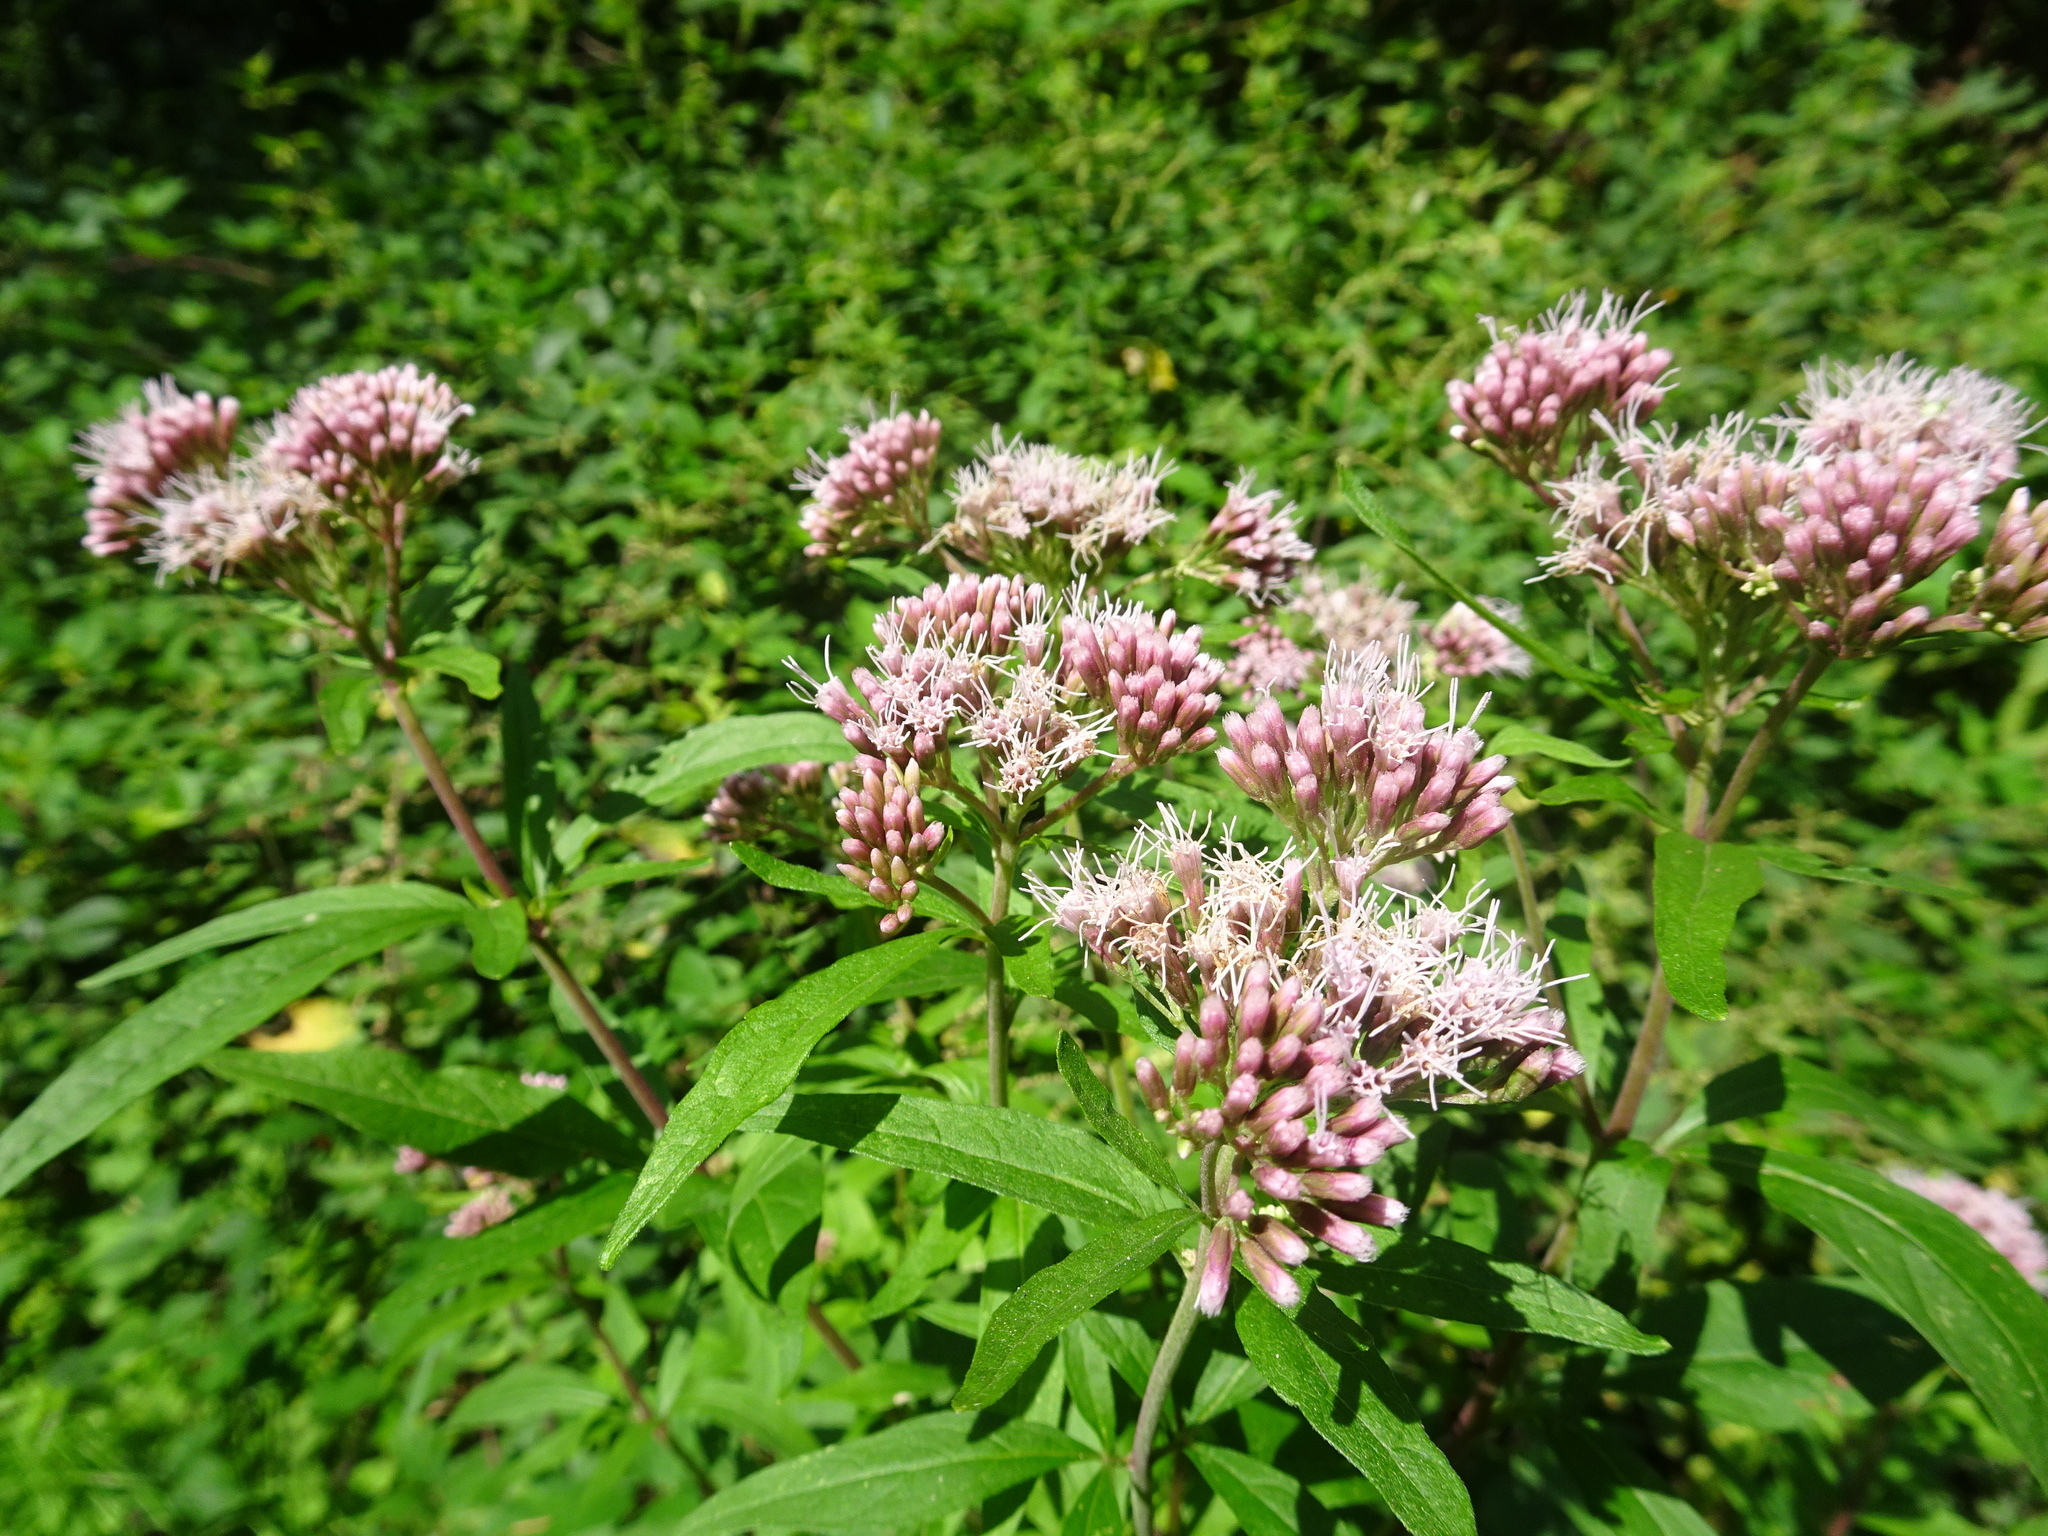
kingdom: Plantae
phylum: Tracheophyta
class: Magnoliopsida
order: Asterales
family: Asteraceae
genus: Eupatorium
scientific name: Eupatorium cannabinum
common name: Hemp-agrimony
